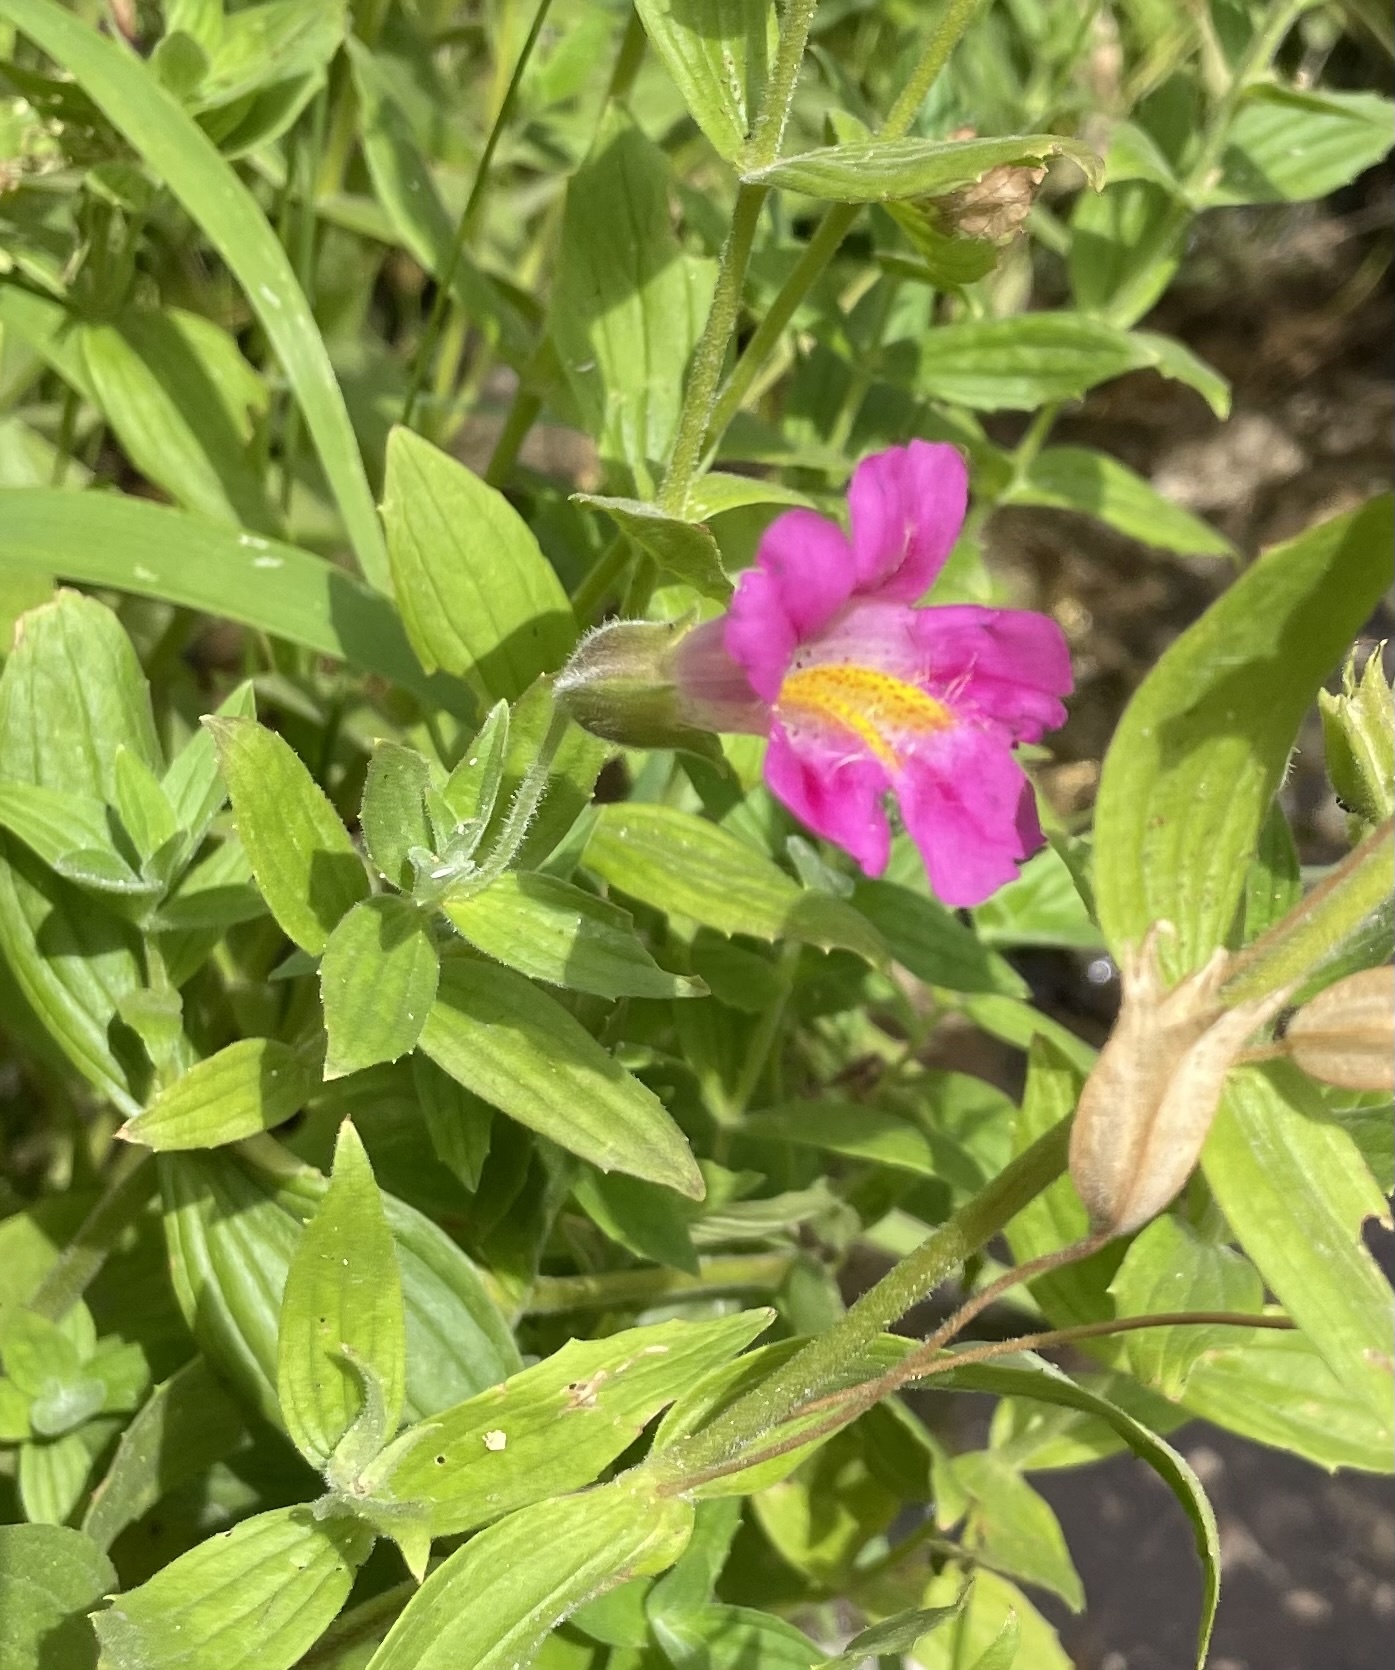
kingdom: Plantae
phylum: Tracheophyta
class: Magnoliopsida
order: Lamiales
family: Phrymaceae
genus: Erythranthe
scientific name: Erythranthe lewisii
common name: Lewis's monkey-flower
